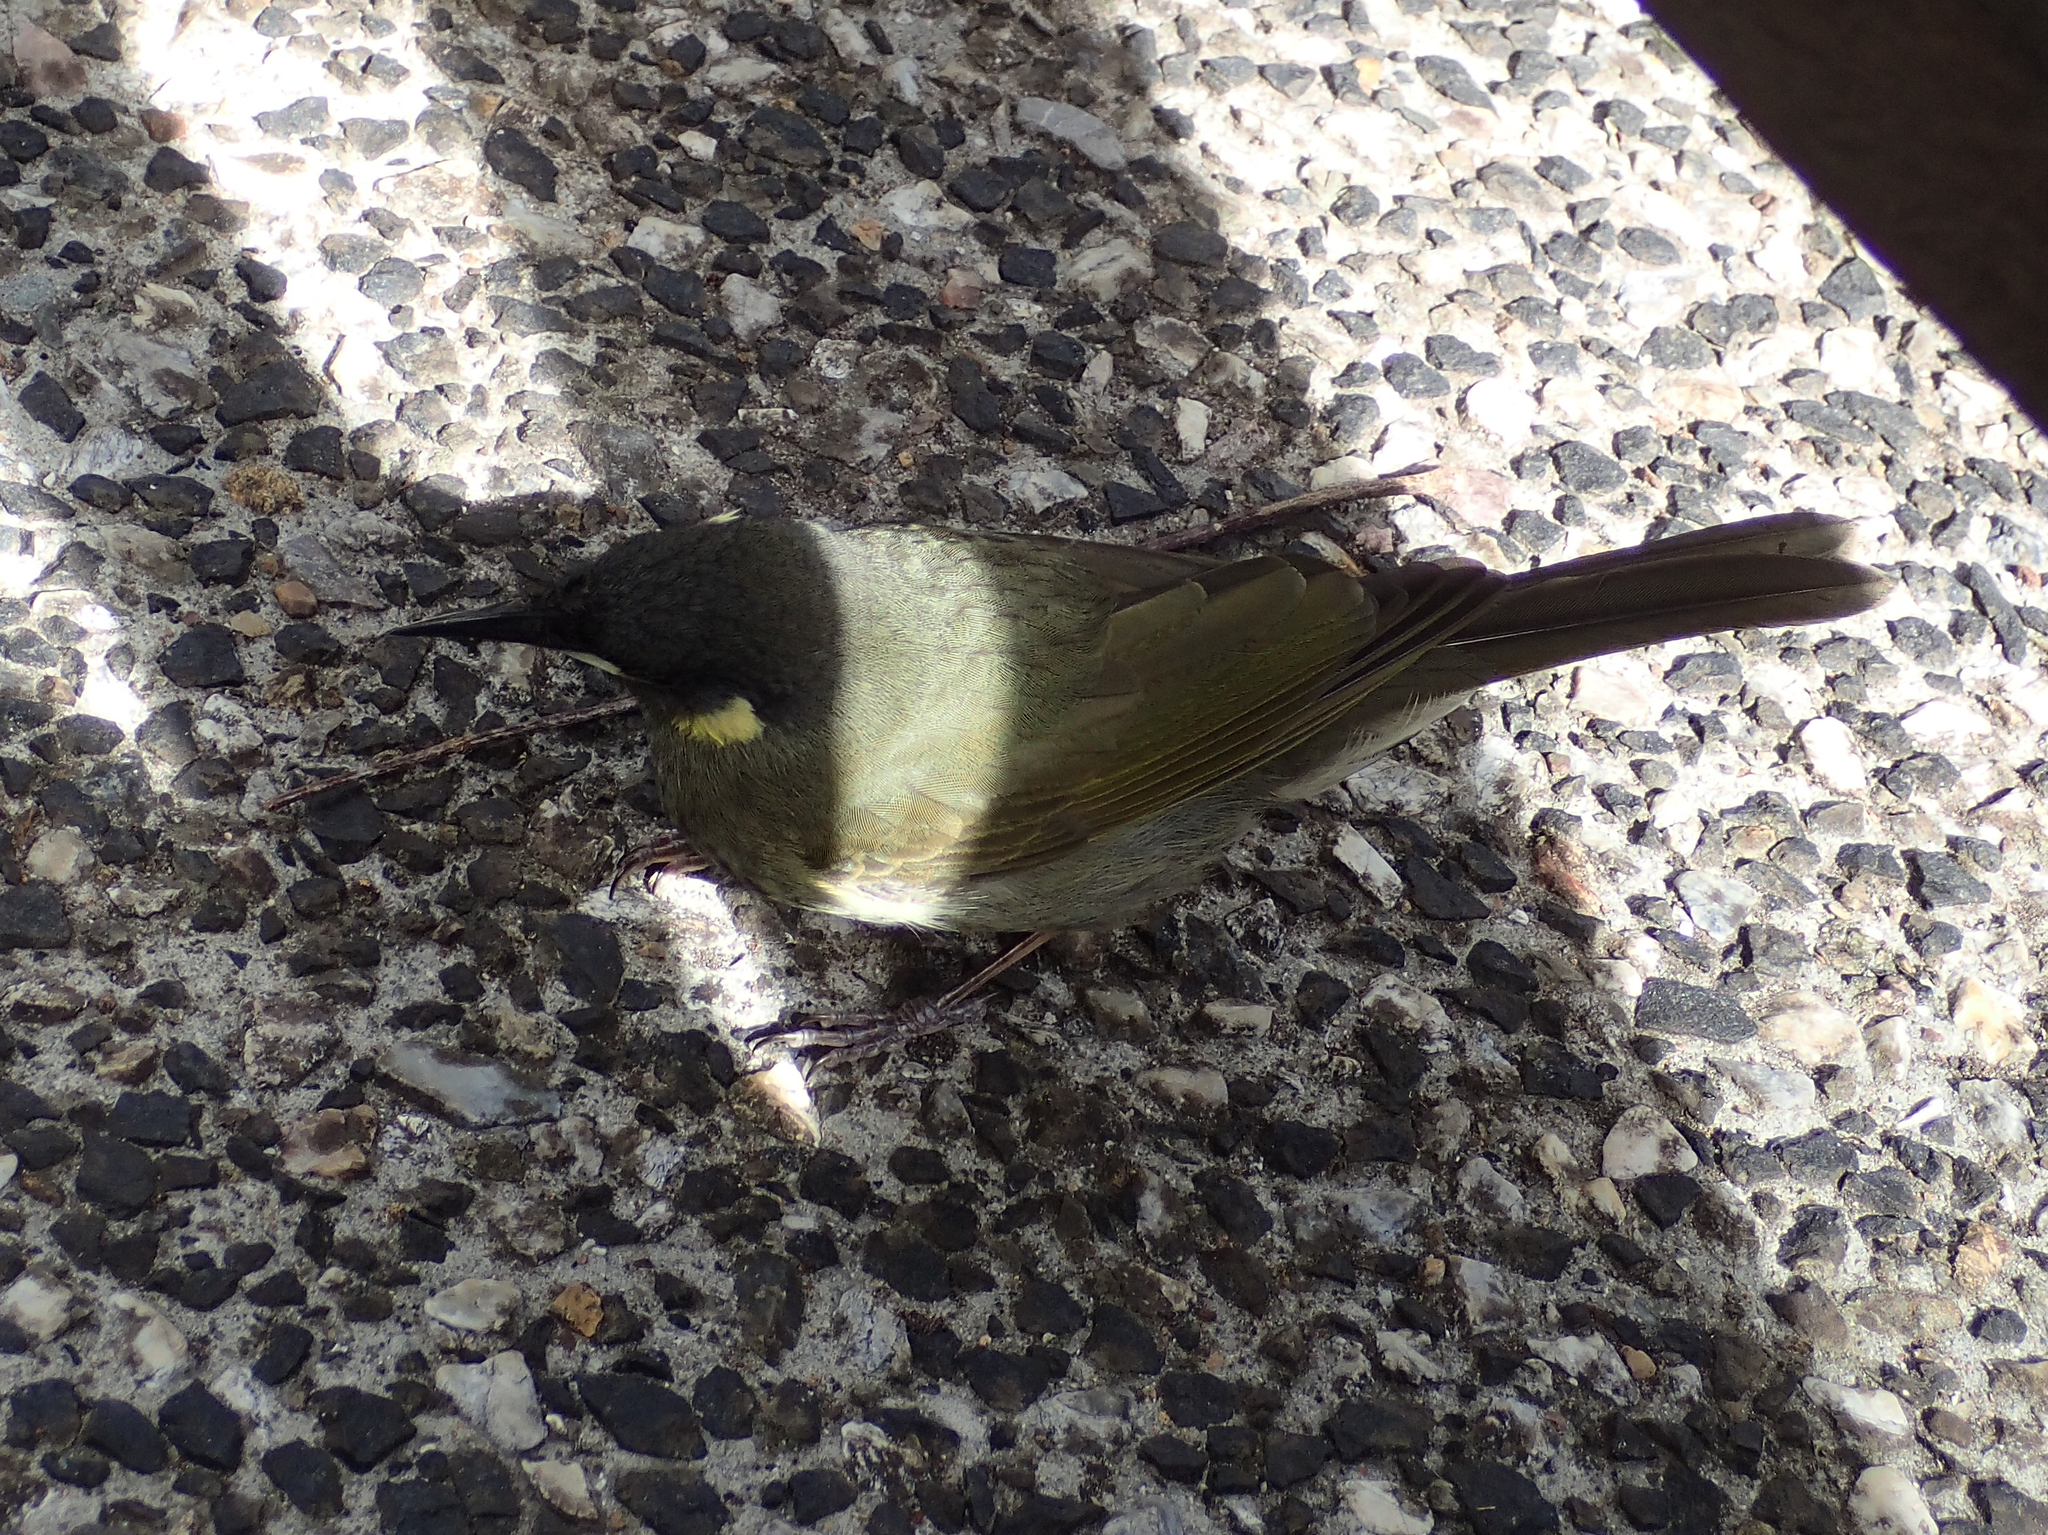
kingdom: Animalia
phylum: Chordata
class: Aves
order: Passeriformes
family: Meliphagidae
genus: Meliphaga
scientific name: Meliphaga lewinii
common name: Lewin's honeyeater
